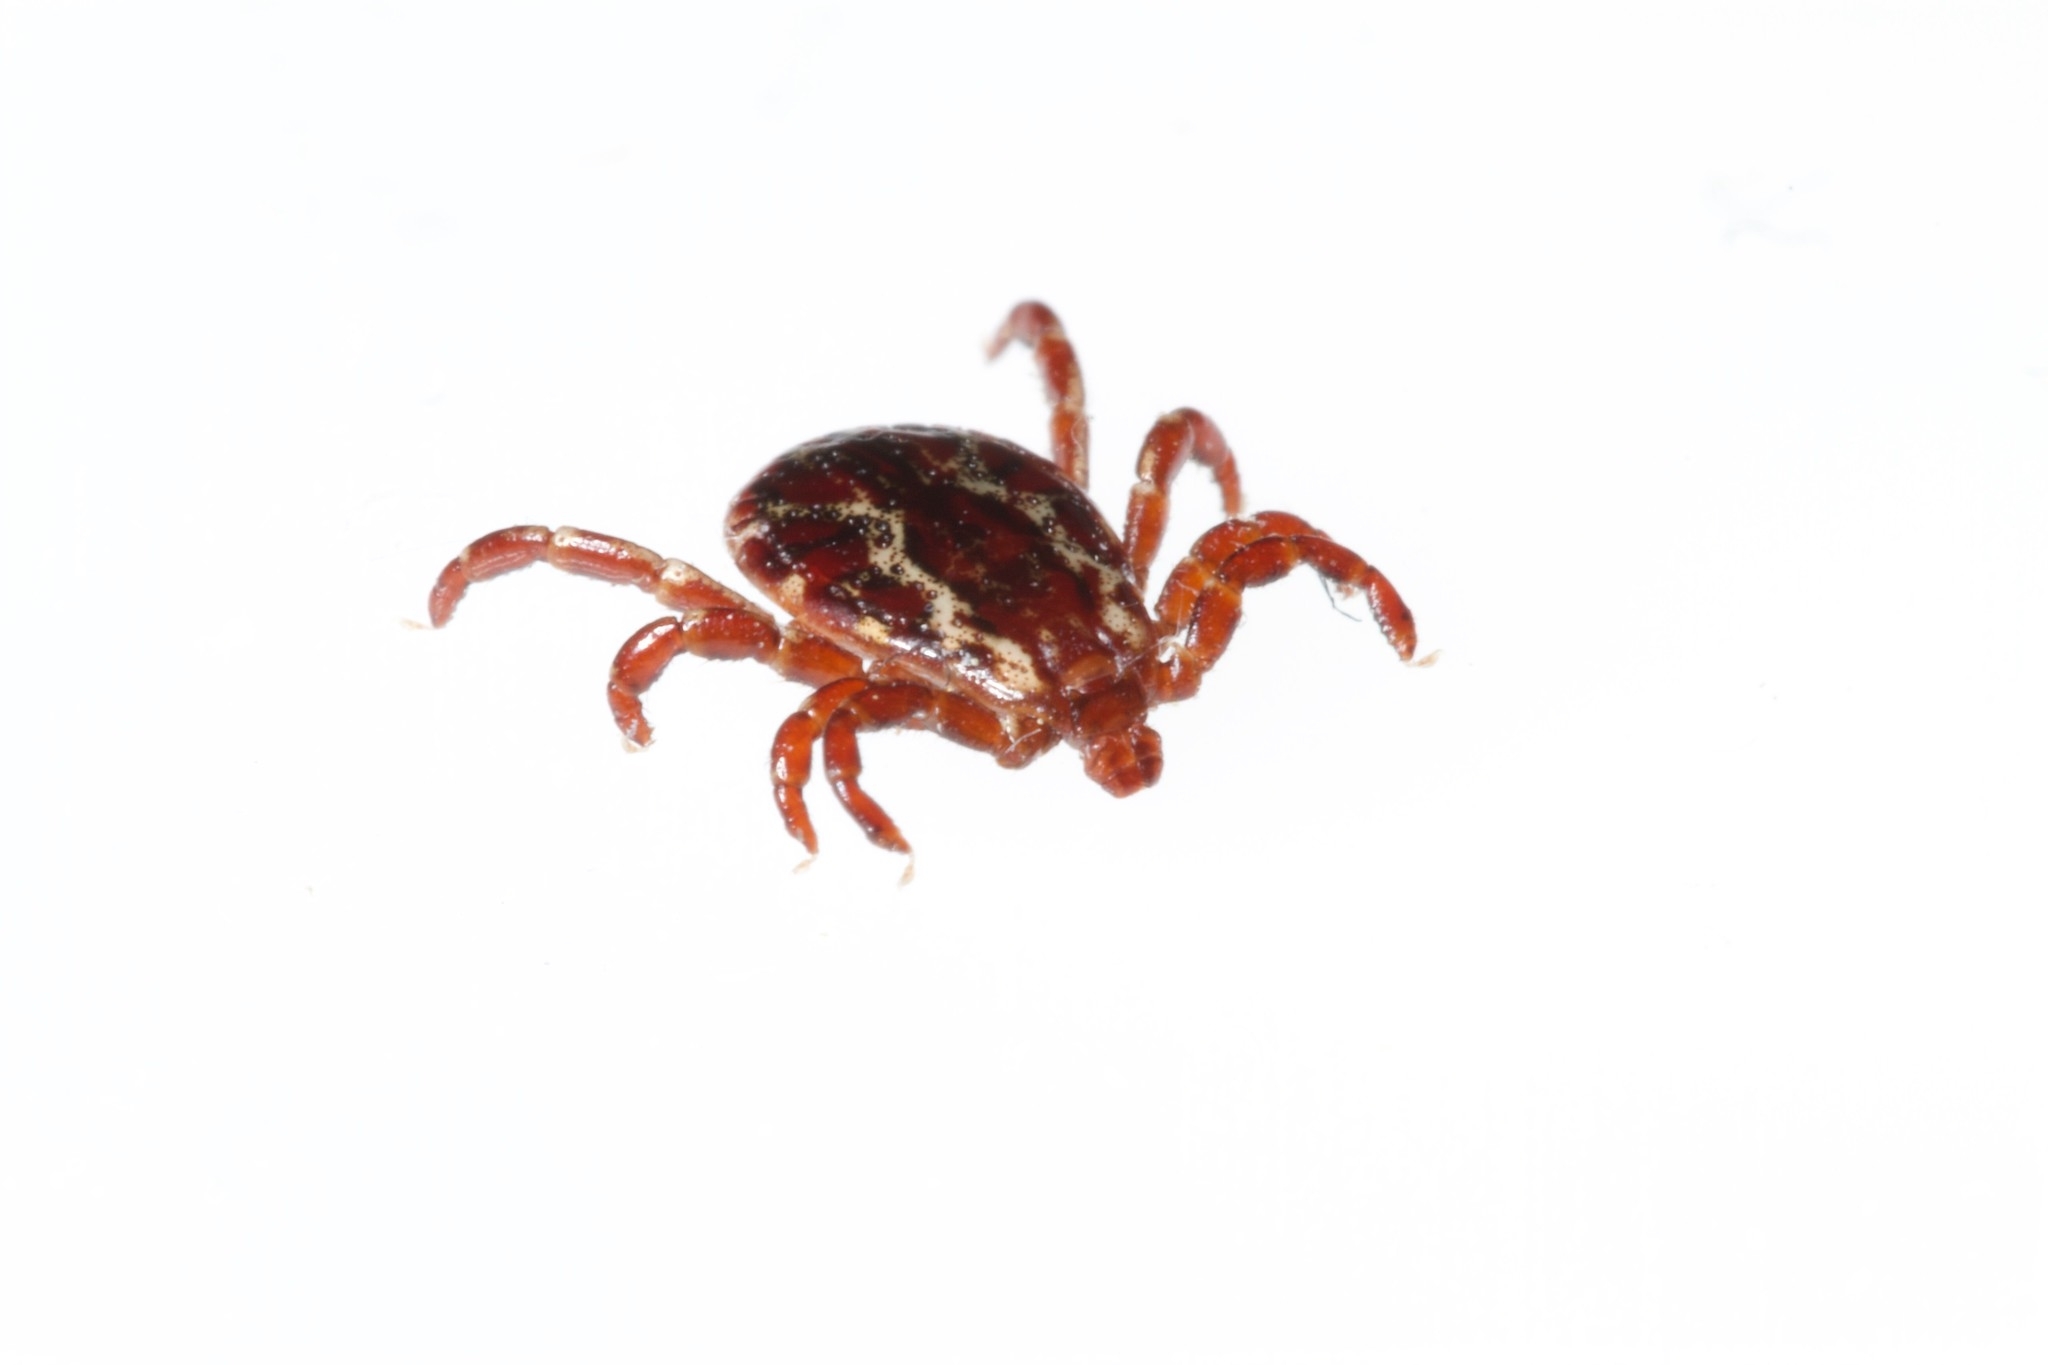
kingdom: Animalia
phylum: Arthropoda
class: Arachnida
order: Ixodida
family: Ixodidae
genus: Dermacentor
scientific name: Dermacentor variabilis
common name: American dog tick
